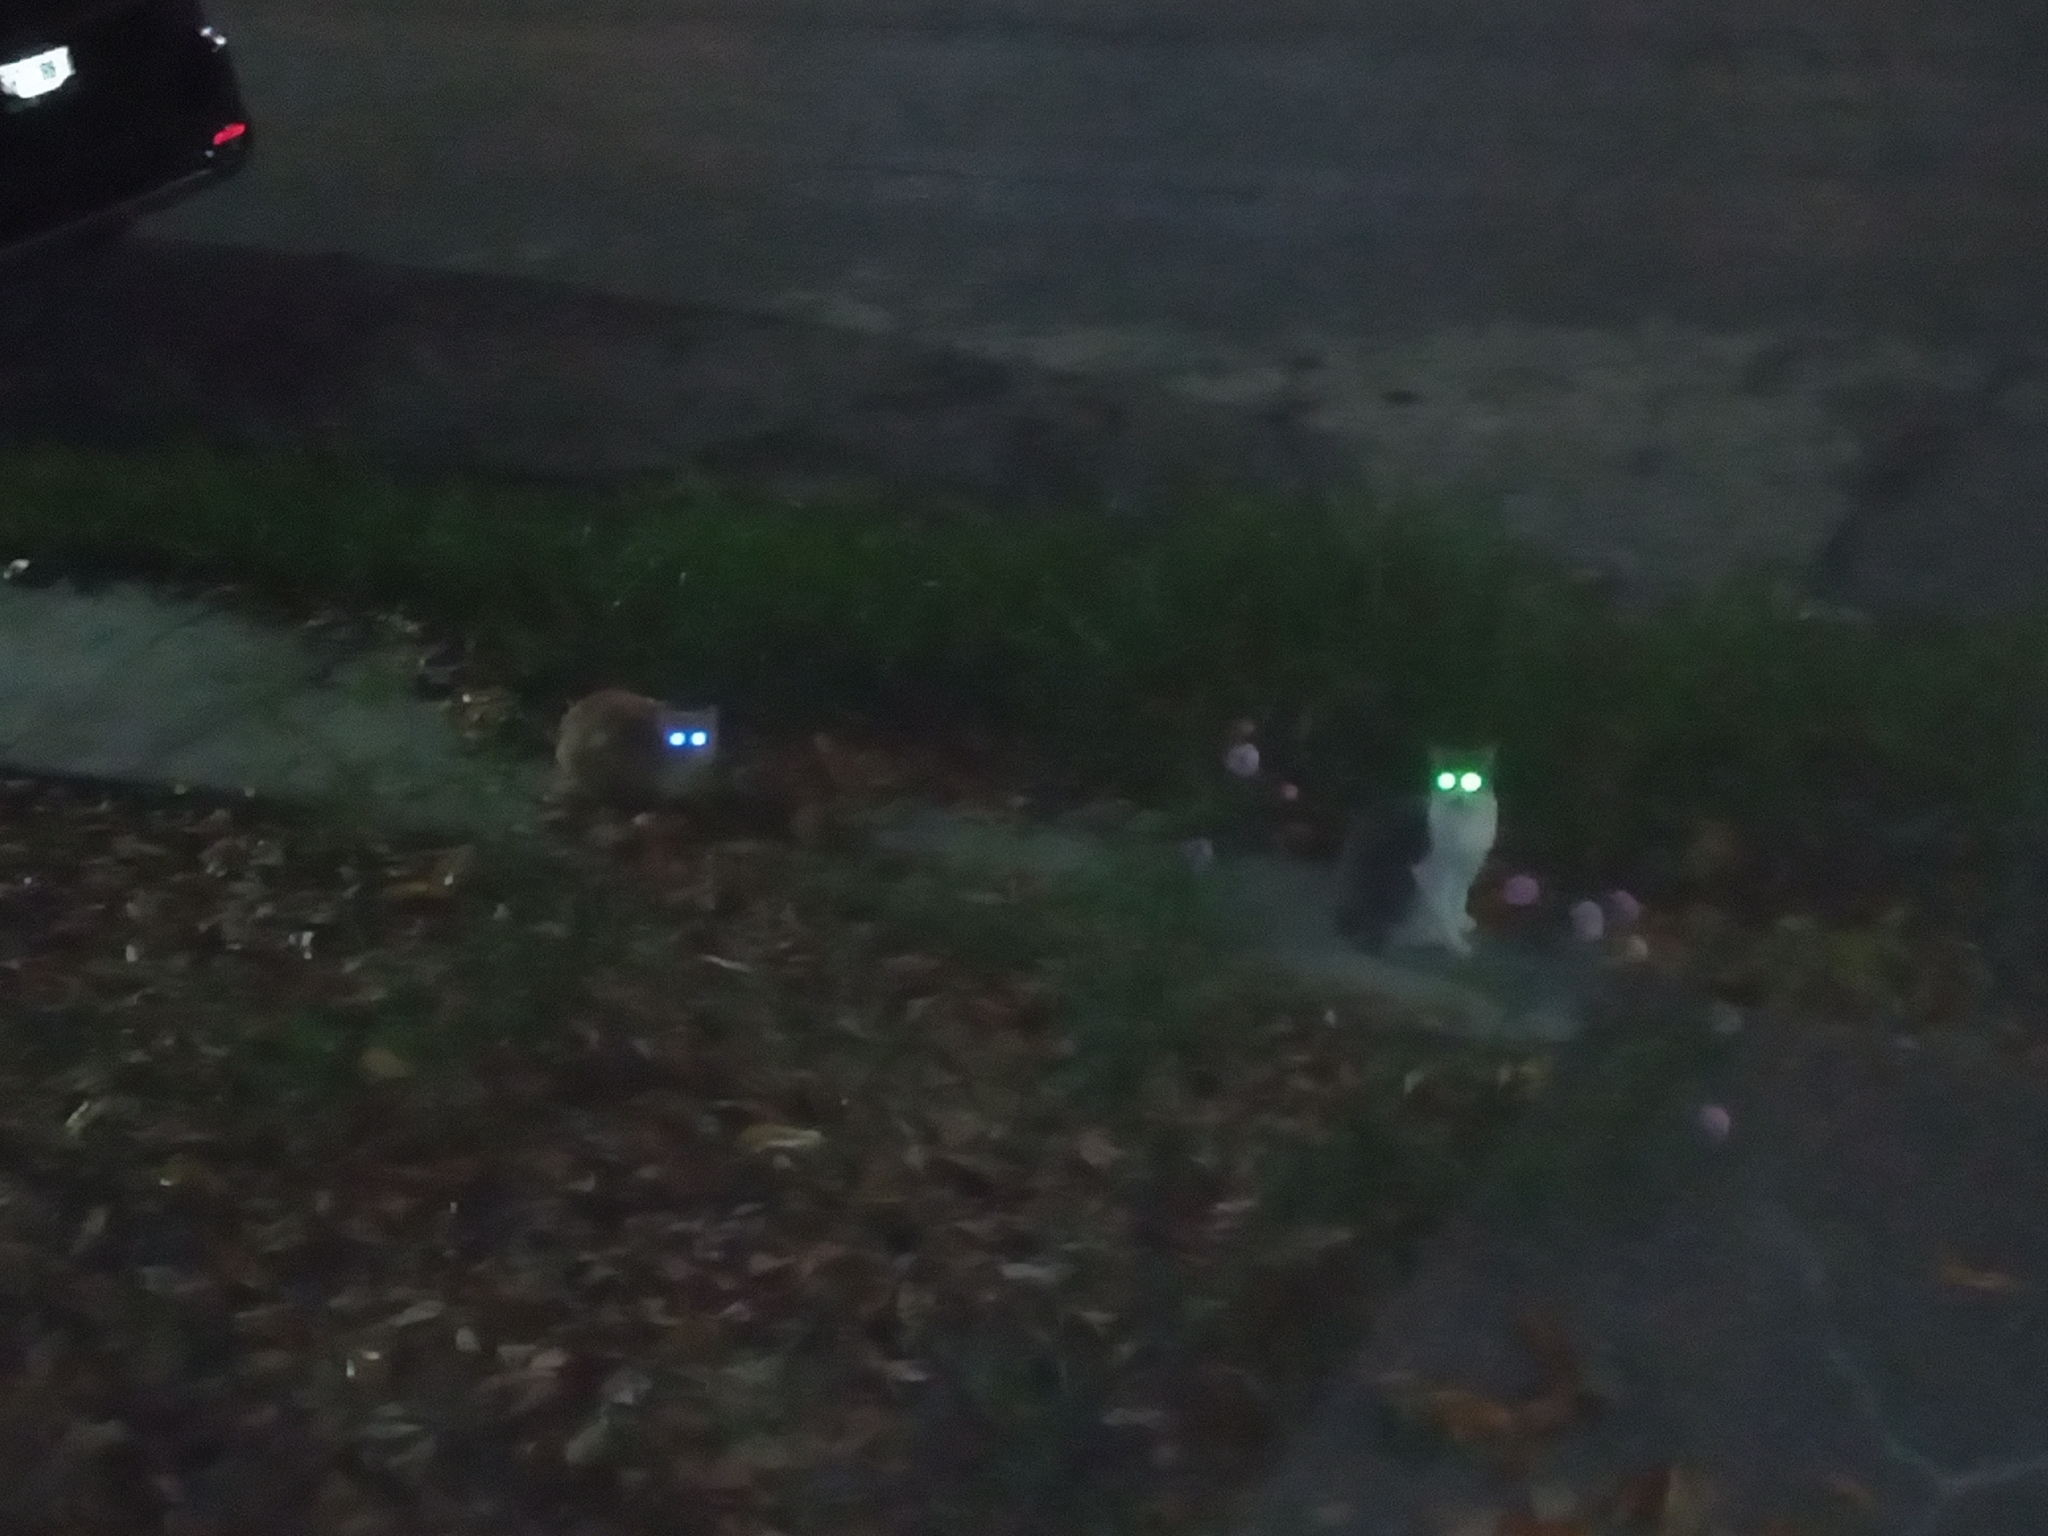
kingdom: Animalia
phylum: Chordata
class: Mammalia
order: Carnivora
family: Felidae
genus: Felis
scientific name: Felis catus
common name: Domestic cat
